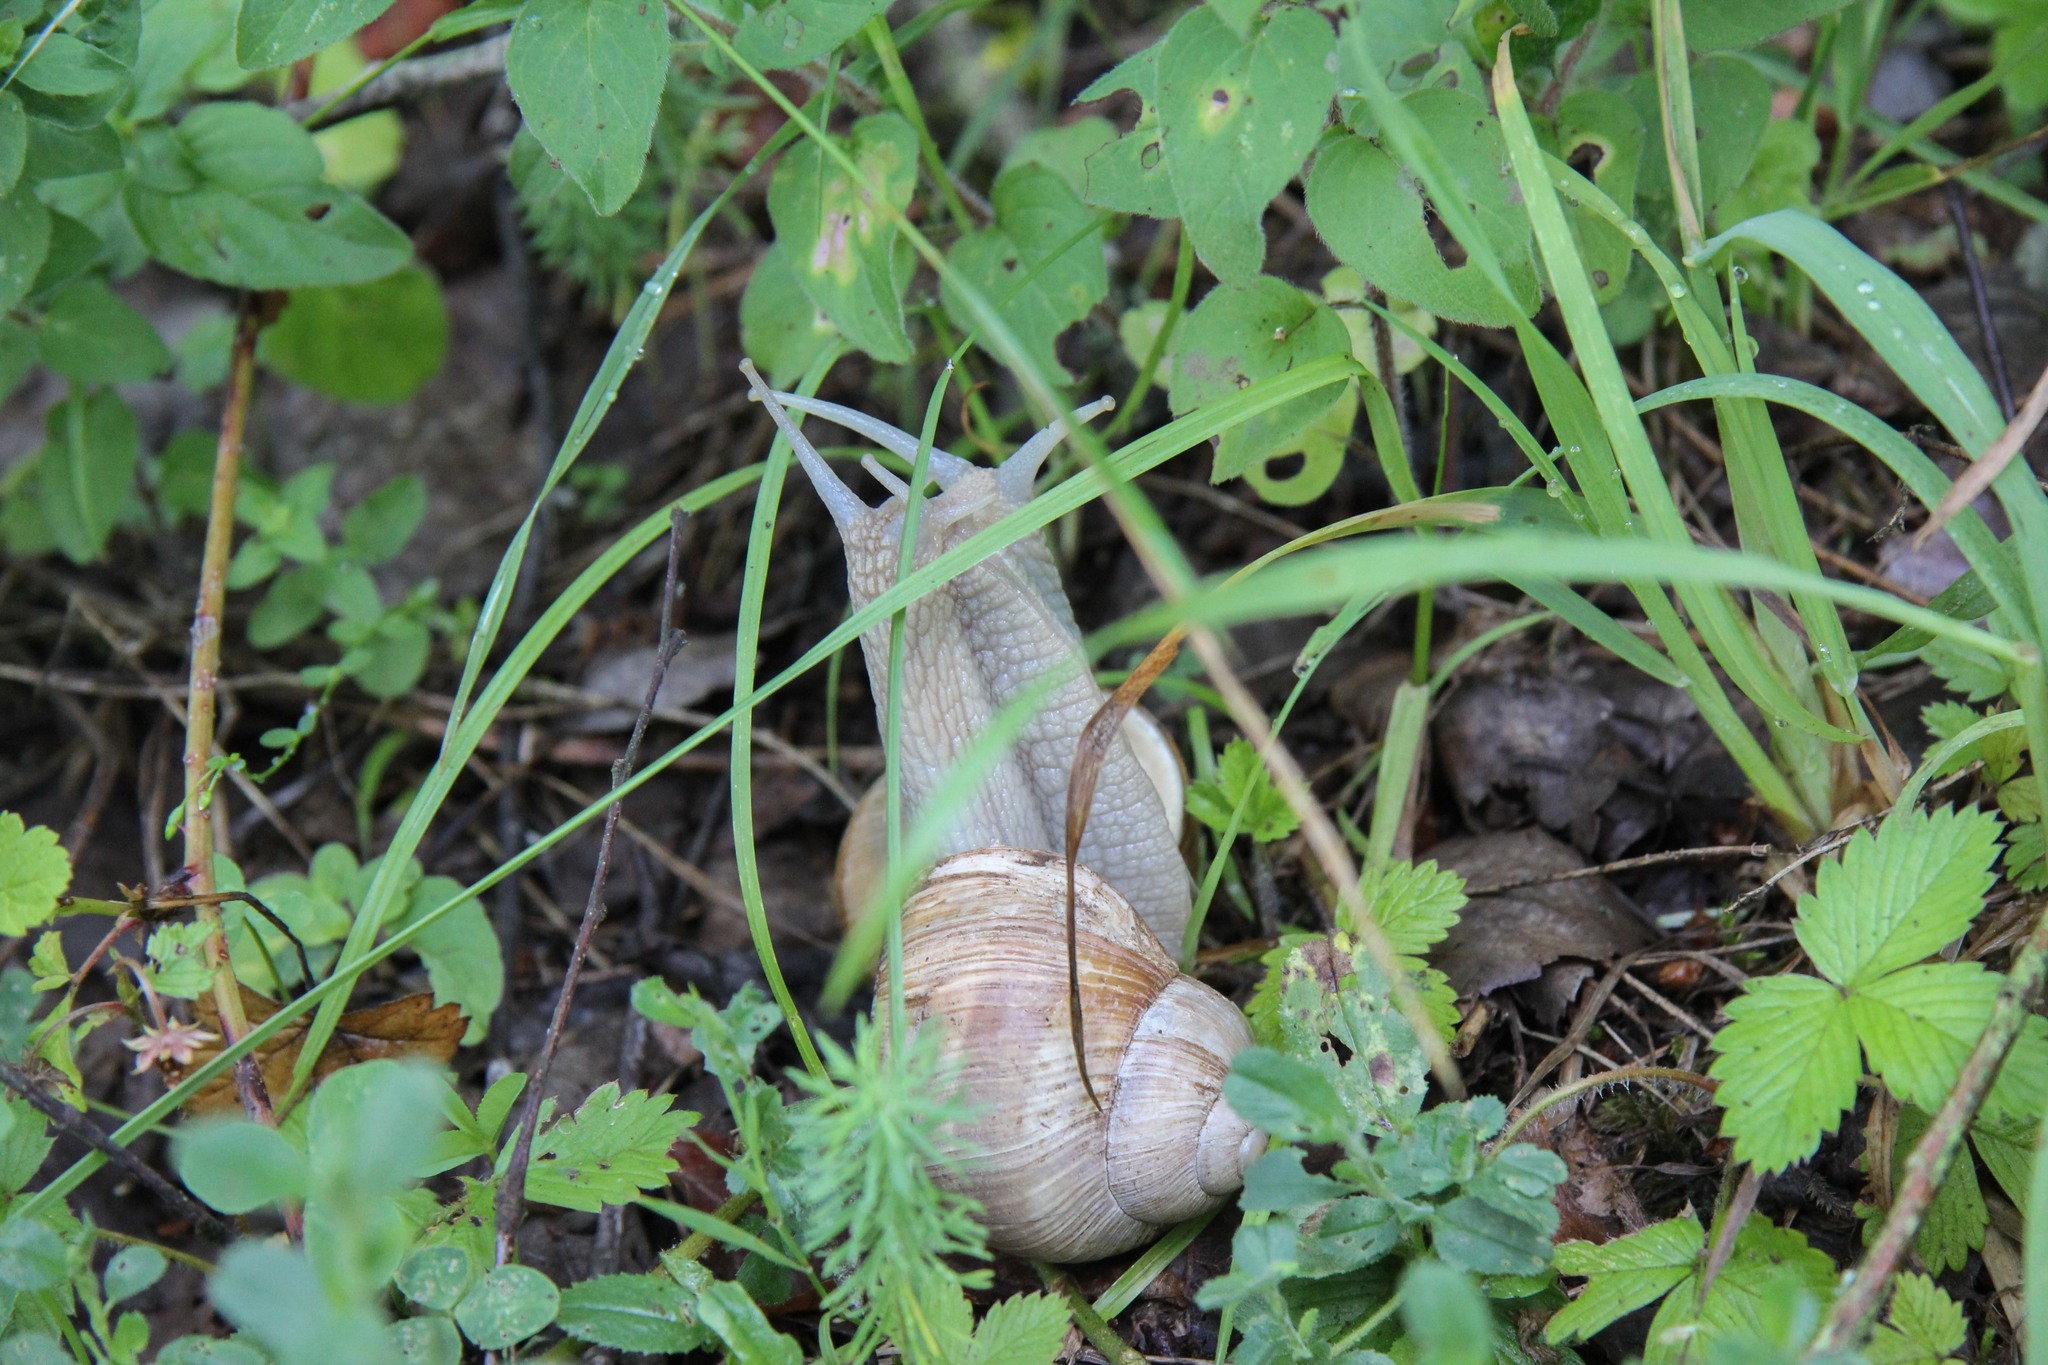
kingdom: Animalia
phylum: Mollusca
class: Gastropoda
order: Stylommatophora
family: Helicidae
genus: Helix
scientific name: Helix pomatia
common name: Roman snail
